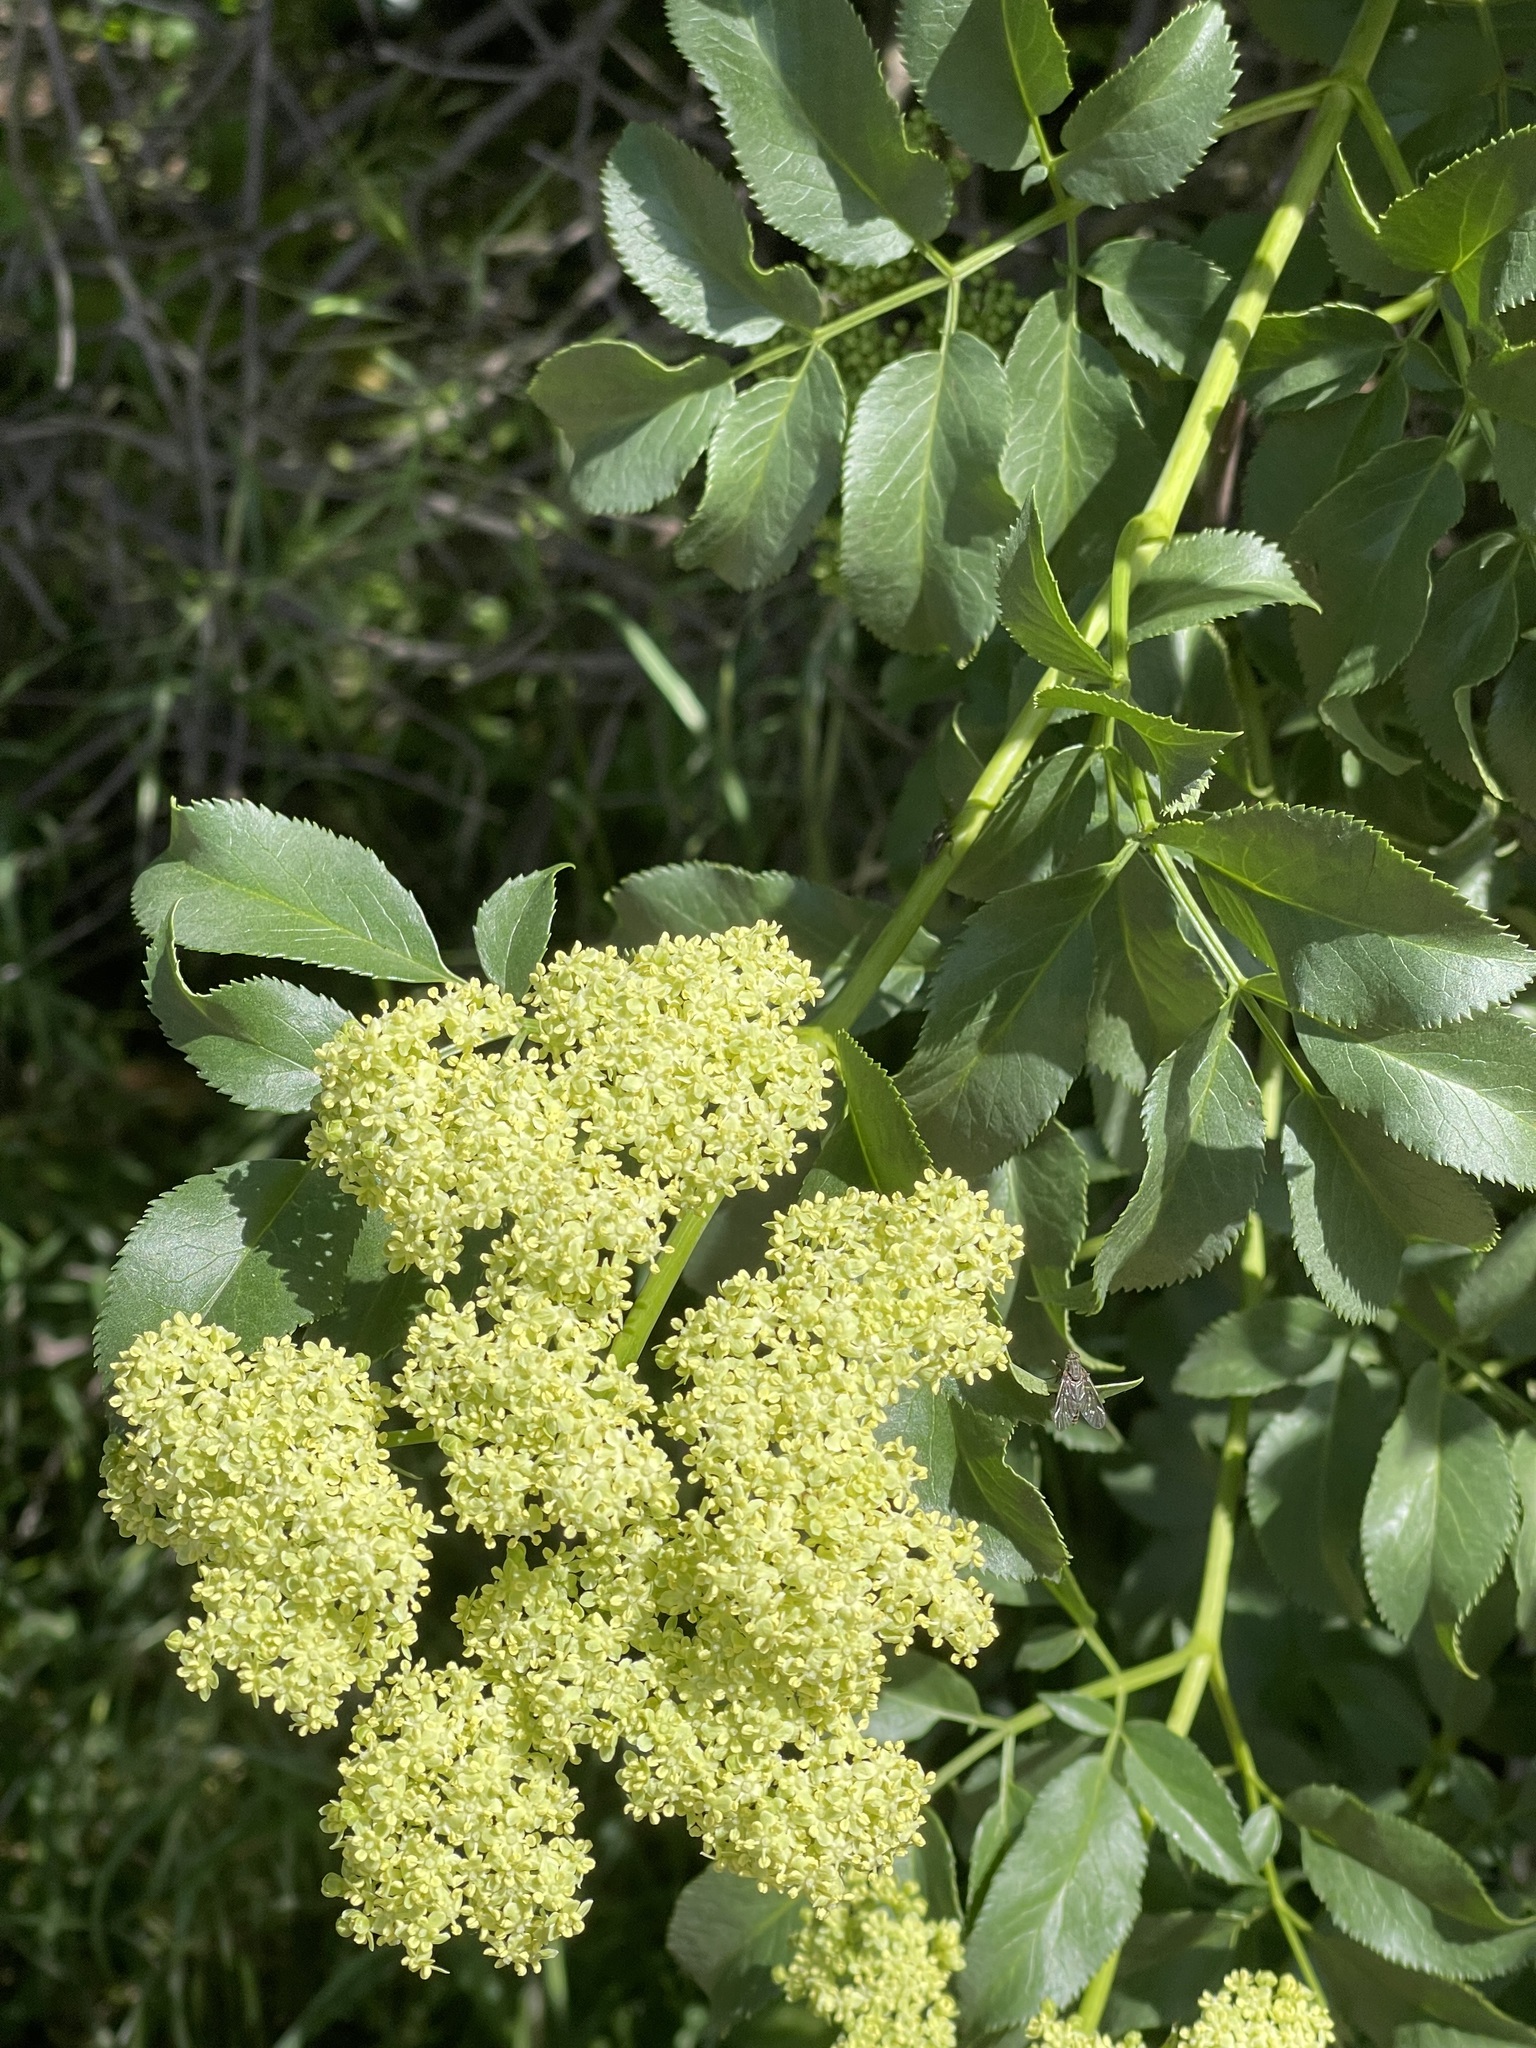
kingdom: Plantae
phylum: Tracheophyta
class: Magnoliopsida
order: Dipsacales
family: Viburnaceae
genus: Sambucus
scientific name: Sambucus cerulea
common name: Blue elder
